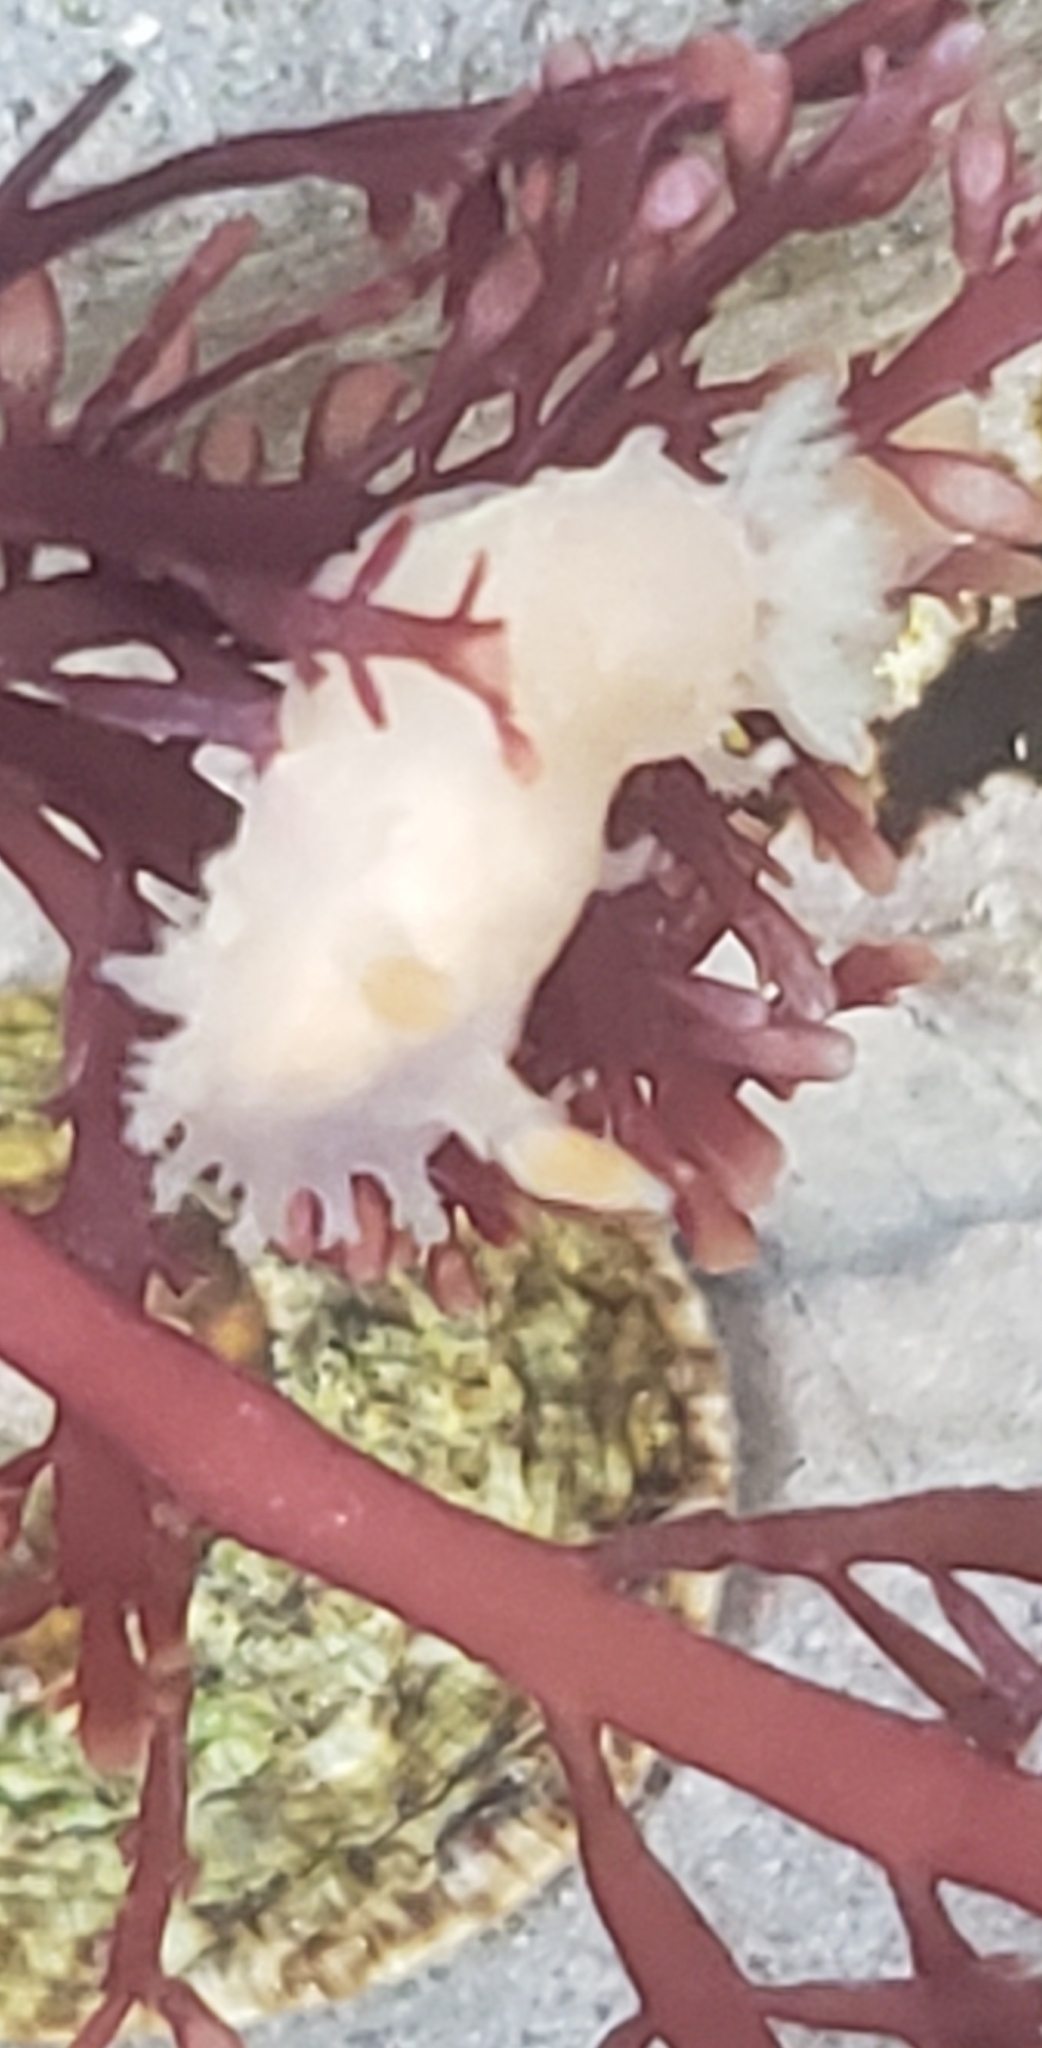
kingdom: Animalia
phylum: Mollusca
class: Gastropoda
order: Nudibranchia
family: Polyceridae
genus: Triopha
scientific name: Triopha maculata
